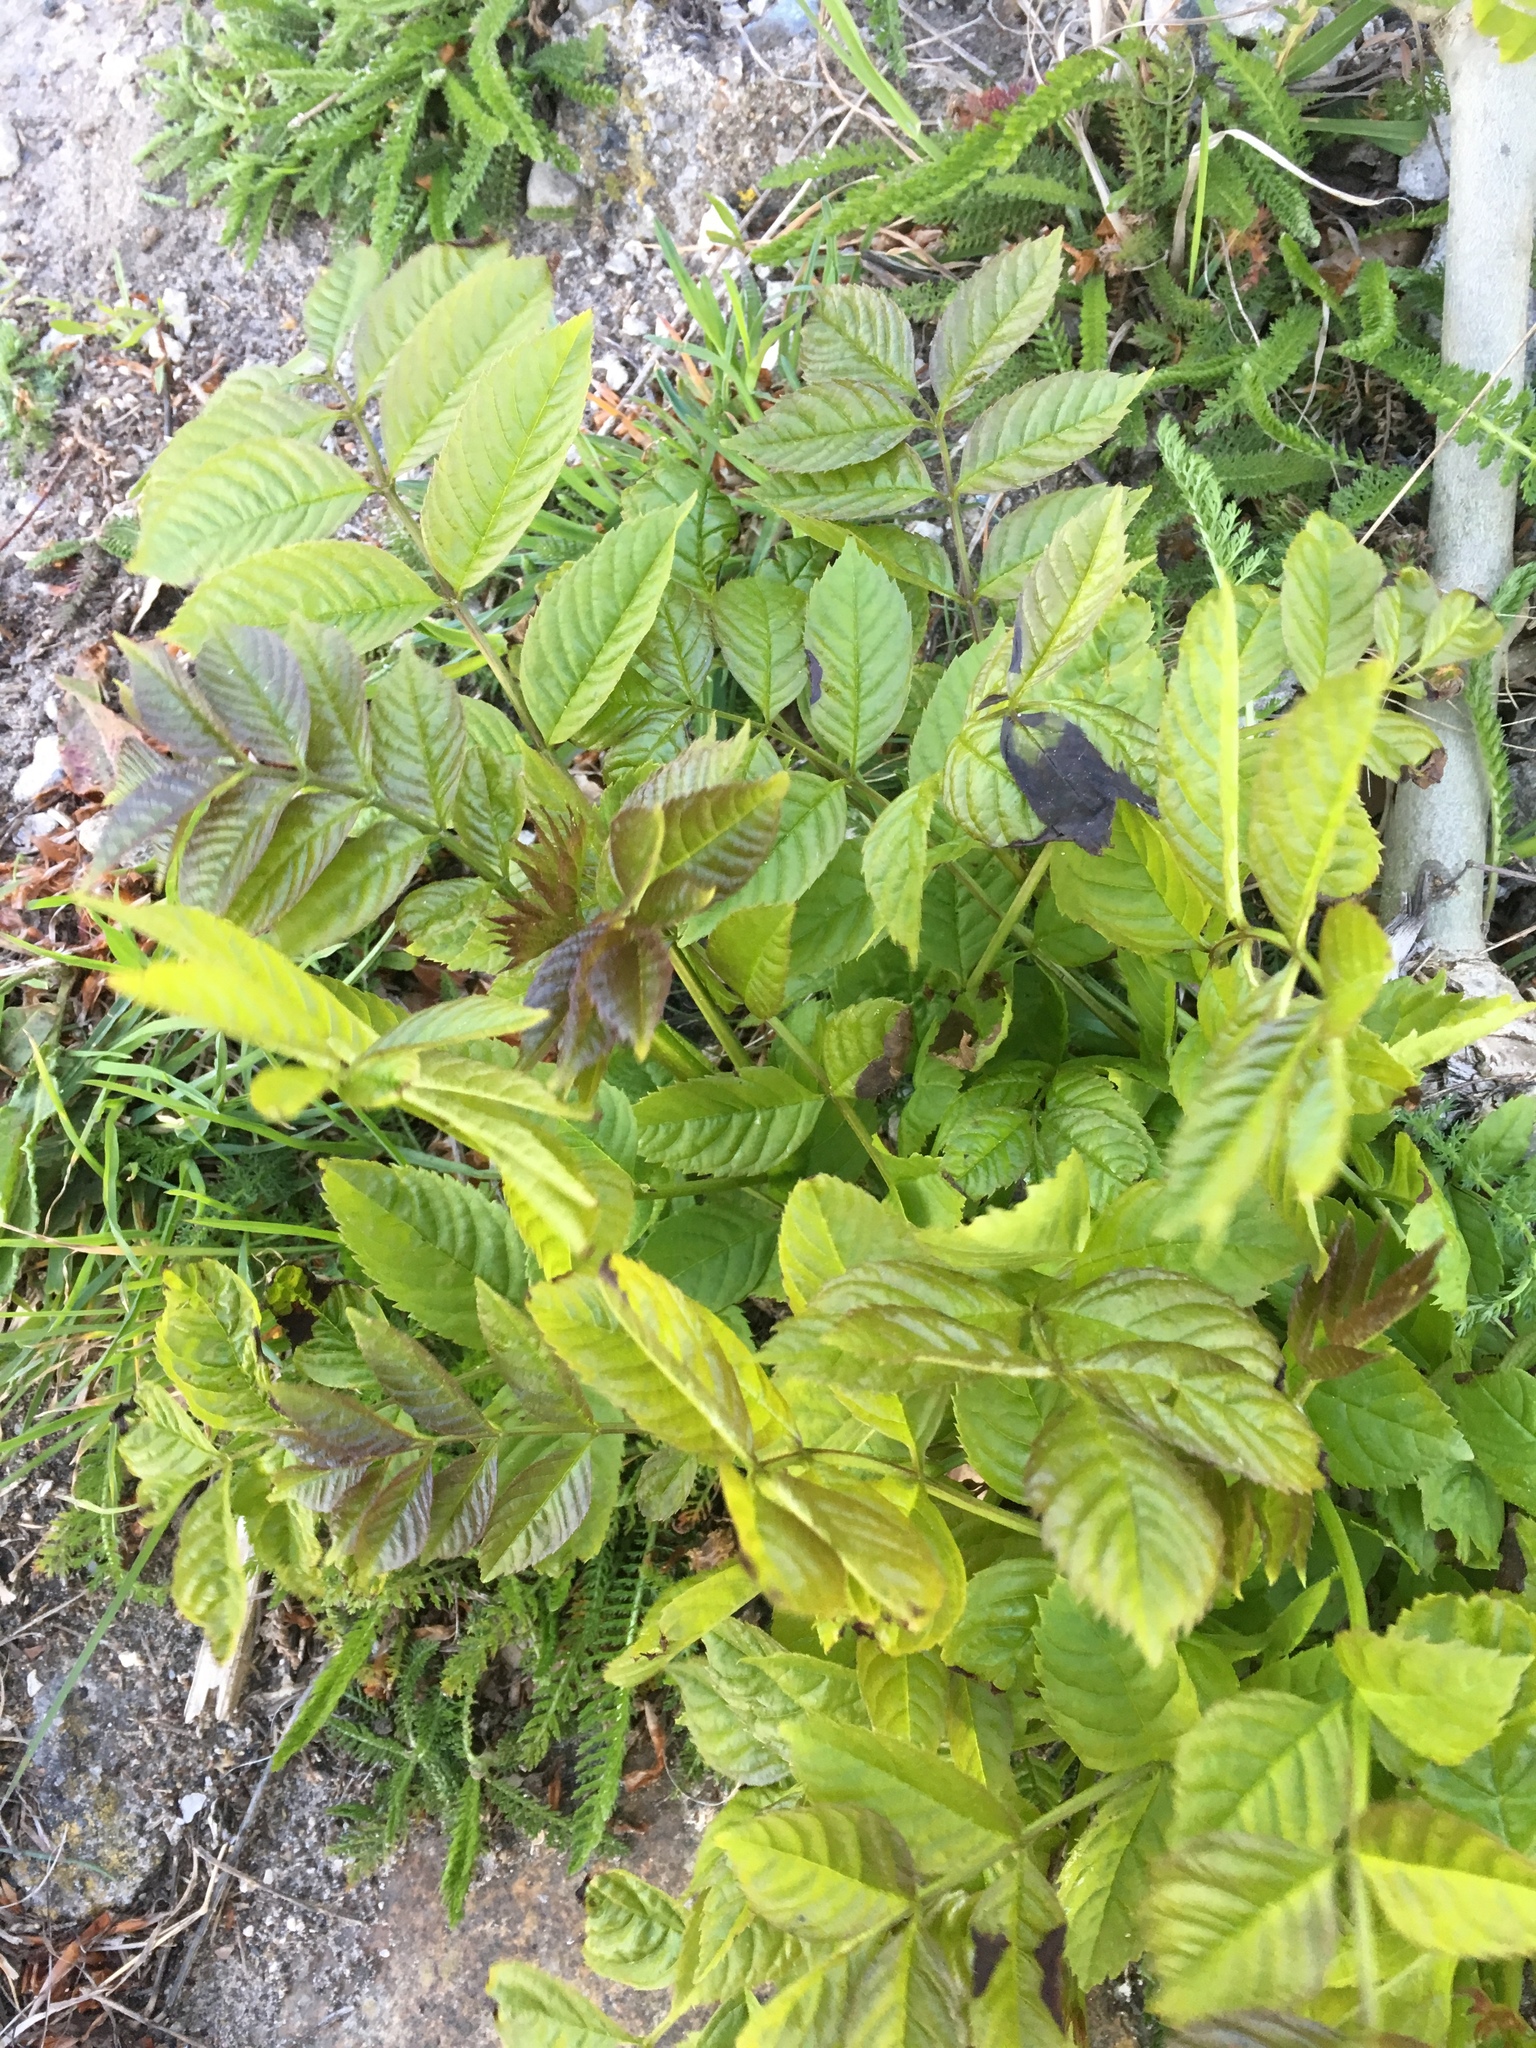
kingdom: Plantae
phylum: Tracheophyta
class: Magnoliopsida
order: Lamiales
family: Oleaceae
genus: Fraxinus
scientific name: Fraxinus excelsior
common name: European ash
